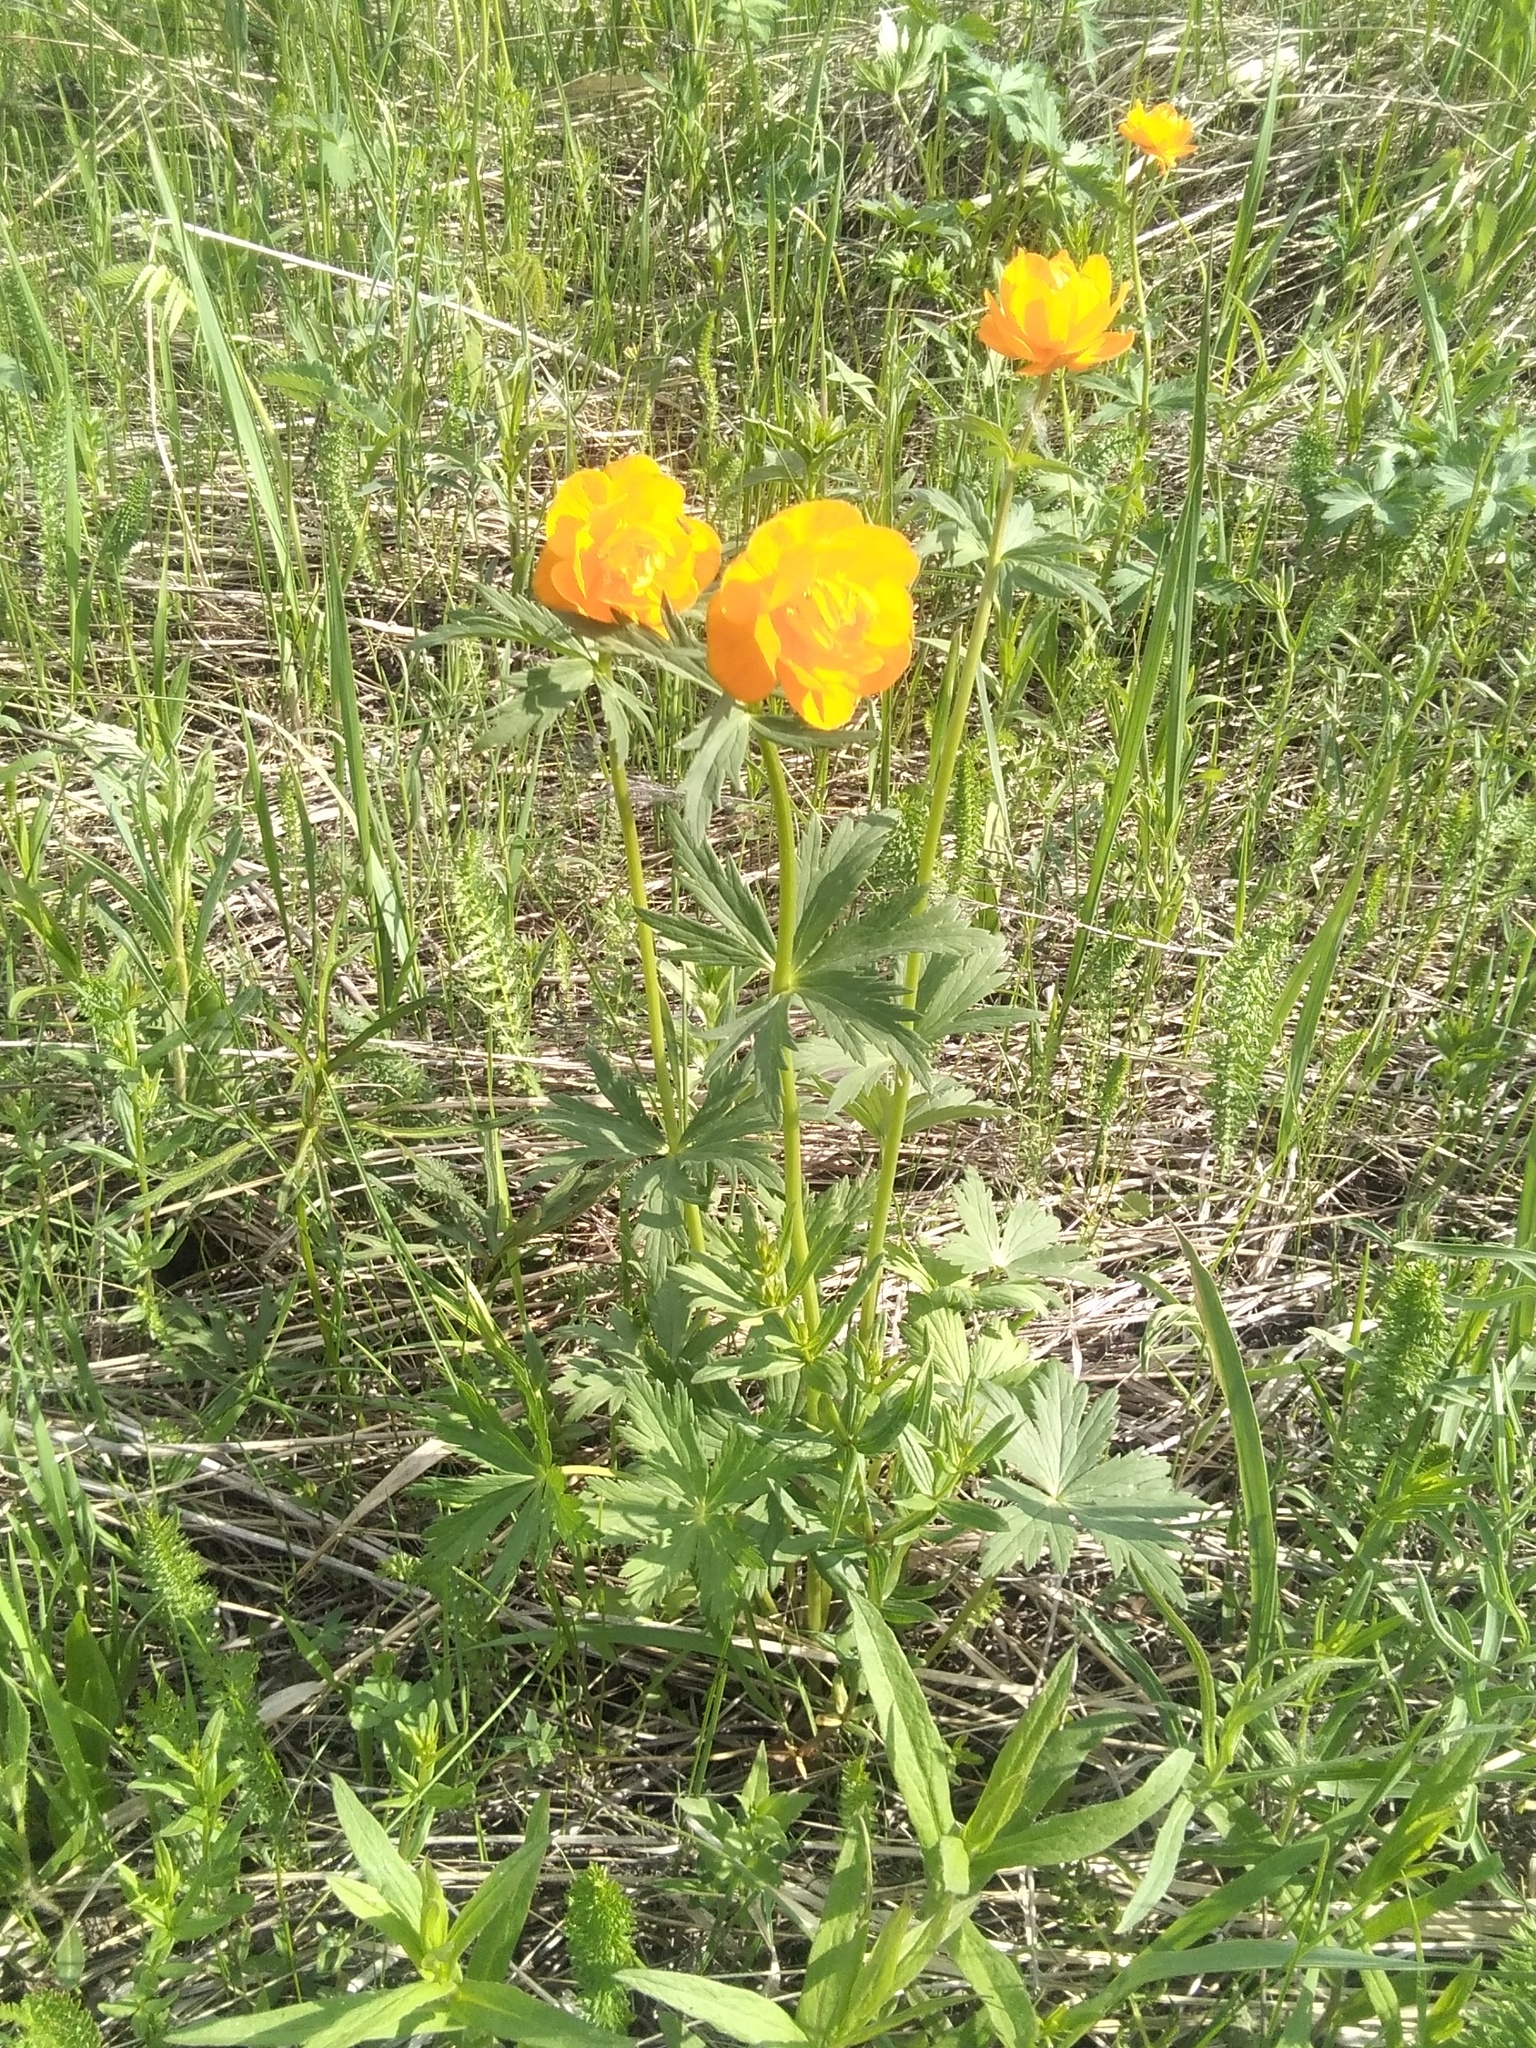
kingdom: Plantae
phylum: Tracheophyta
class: Magnoliopsida
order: Ranunculales
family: Ranunculaceae
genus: Trollius
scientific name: Trollius asiaticus
